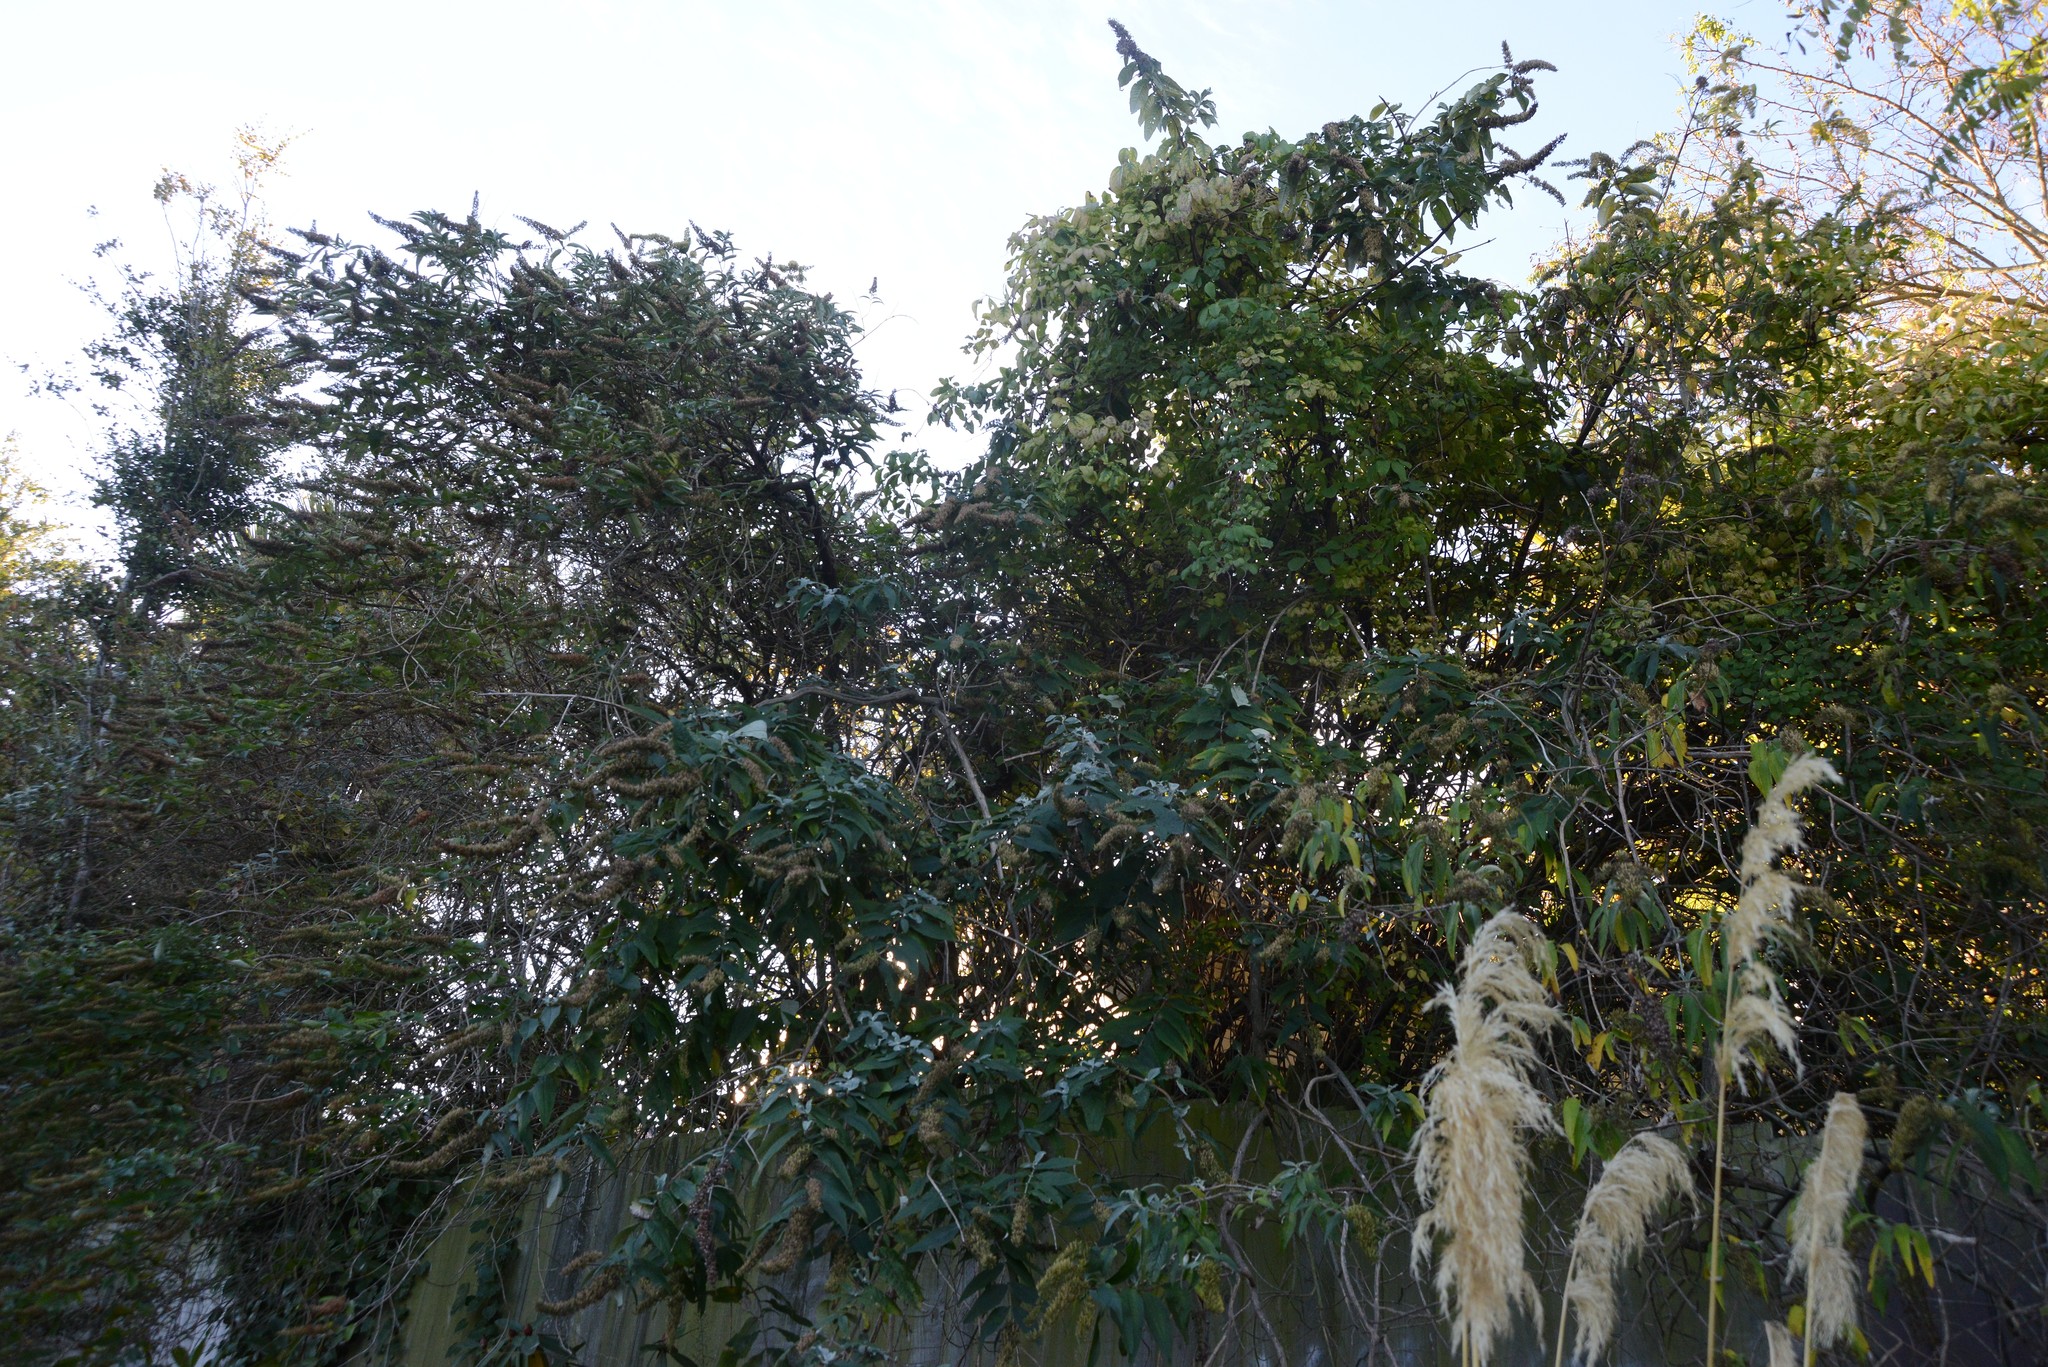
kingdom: Plantae
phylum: Tracheophyta
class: Magnoliopsida
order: Lamiales
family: Scrophulariaceae
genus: Buddleja
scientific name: Buddleja davidii
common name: Butterfly-bush
